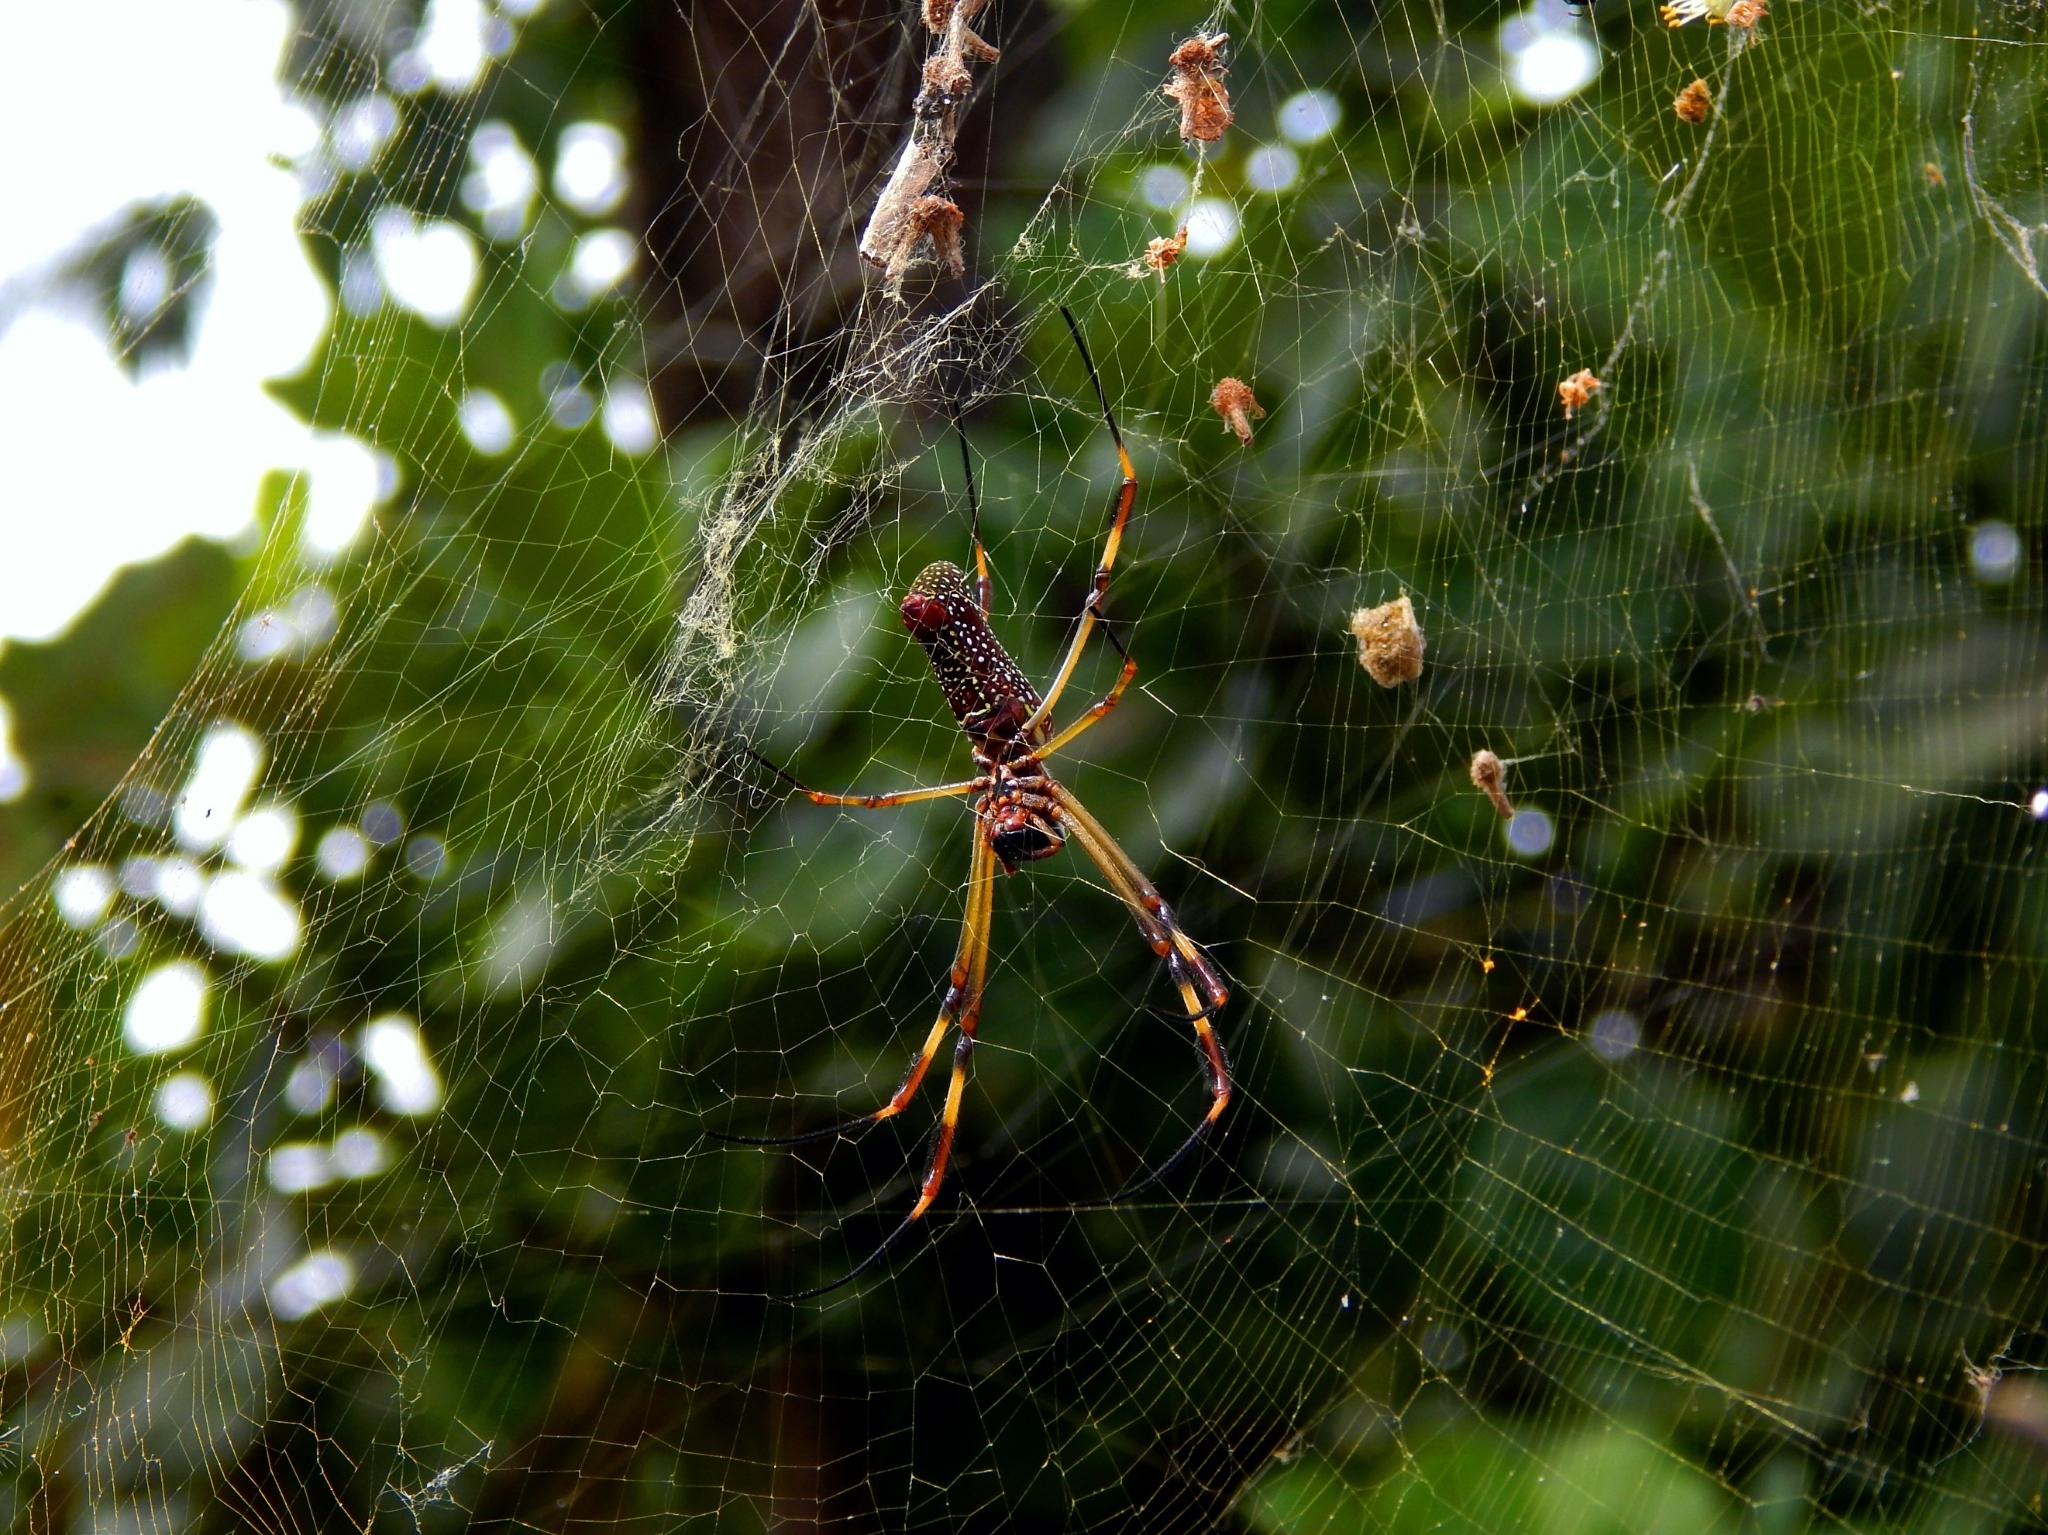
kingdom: Animalia
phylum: Arthropoda
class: Arachnida
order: Araneae
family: Araneidae
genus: Trichonephila
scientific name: Trichonephila clavipes
